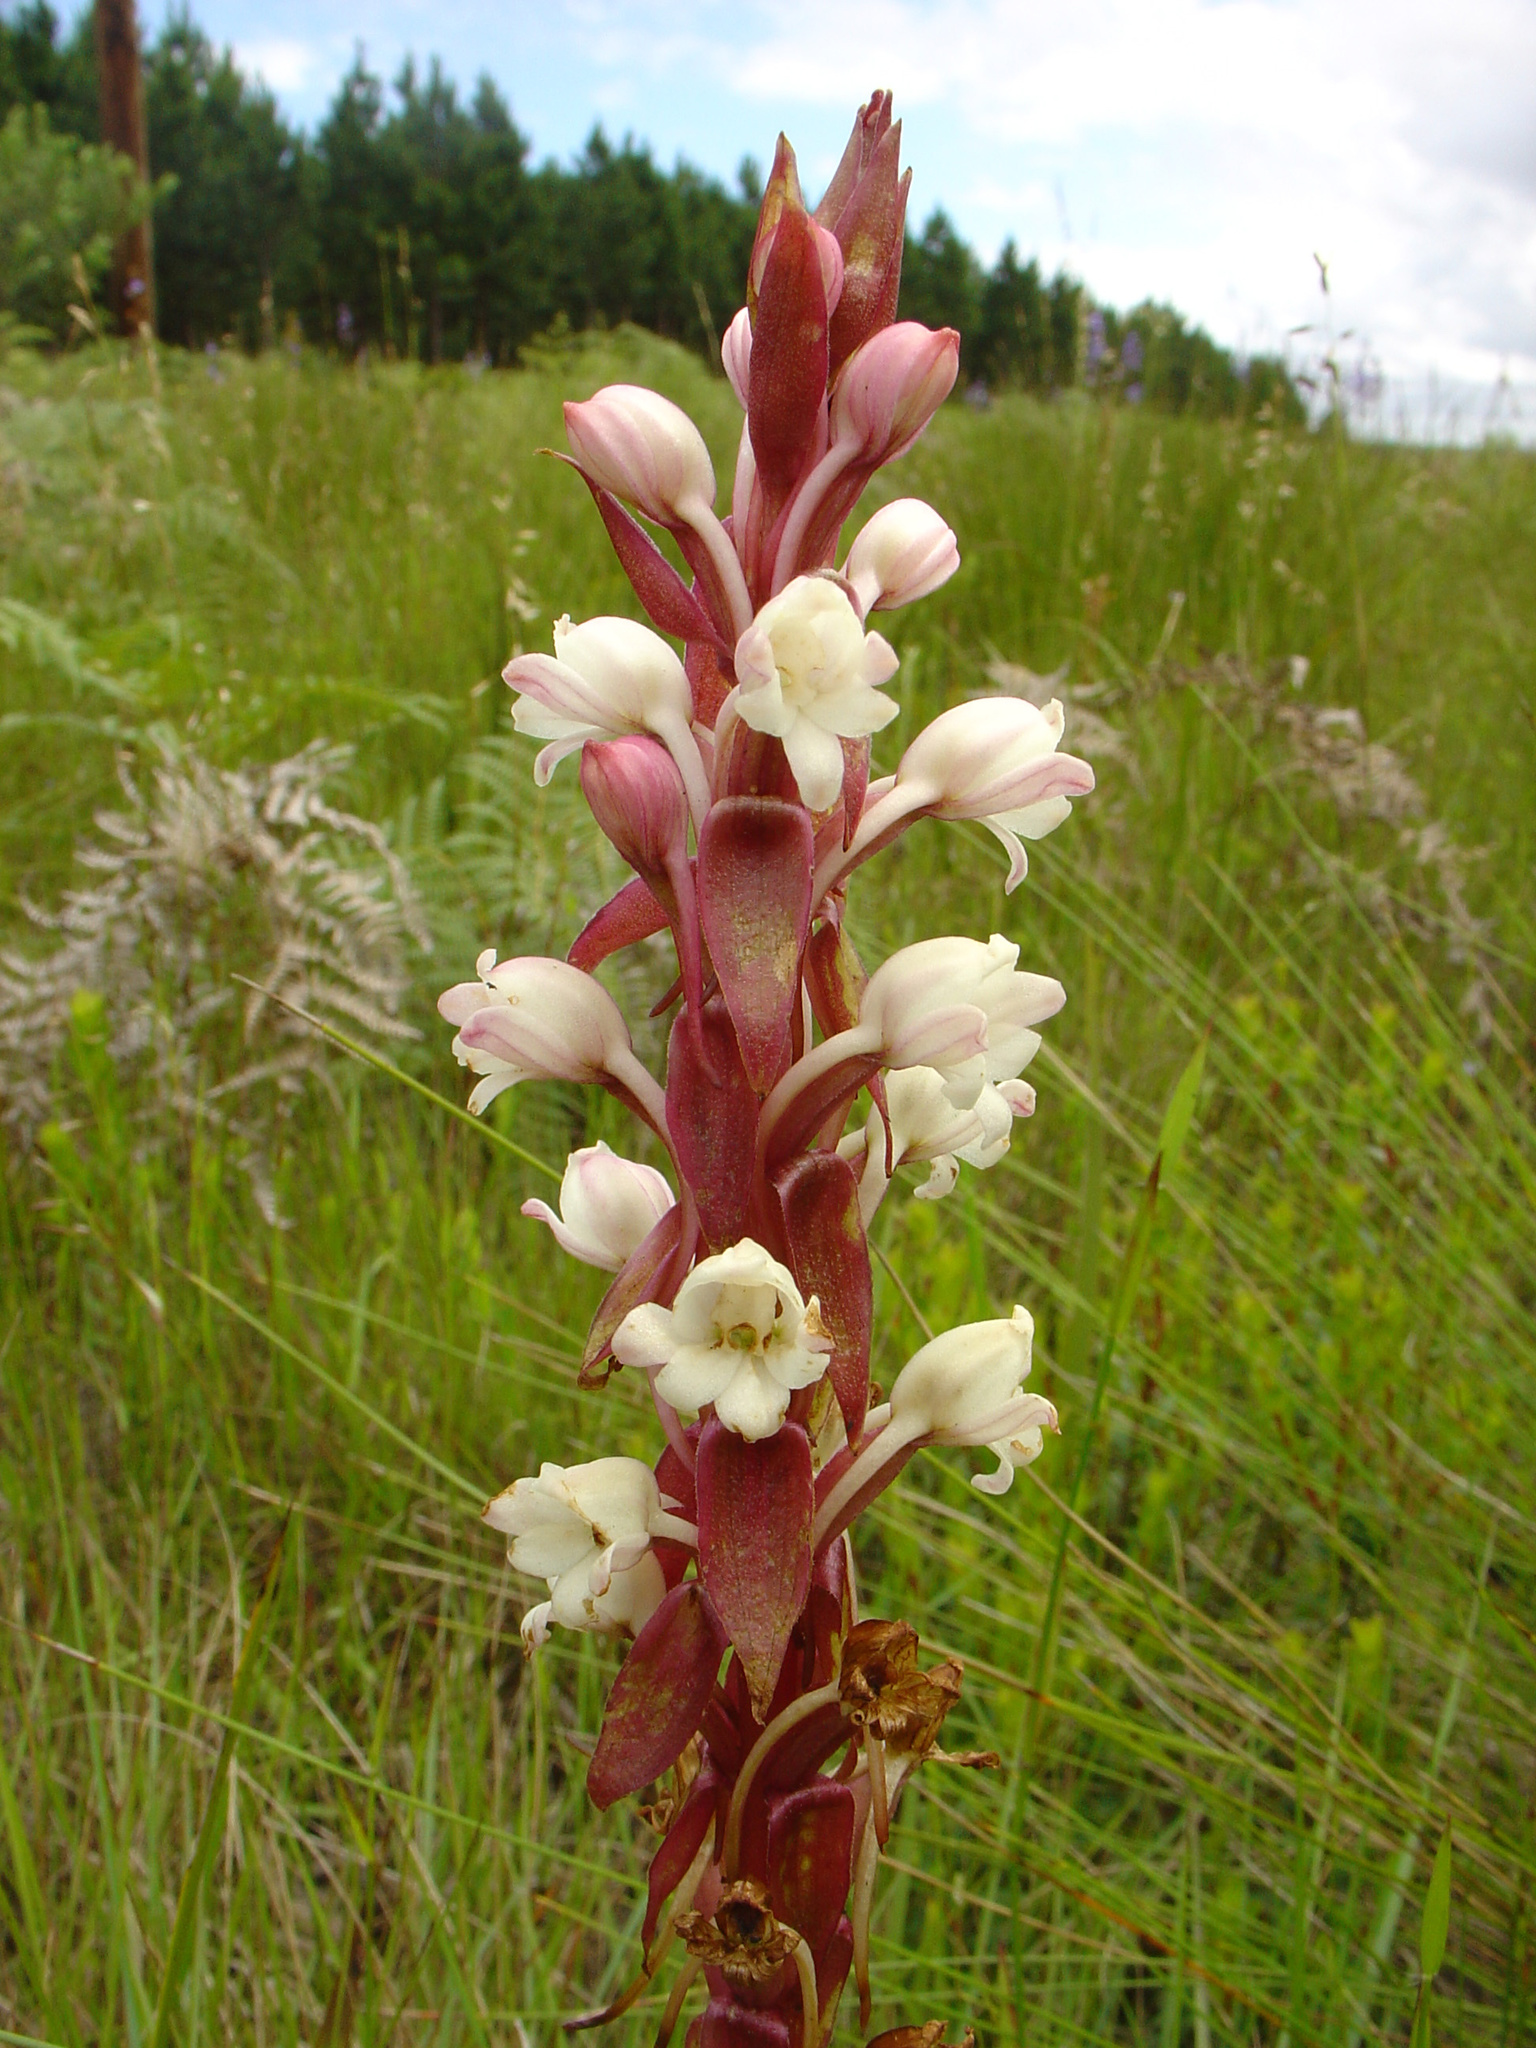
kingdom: Plantae
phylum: Tracheophyta
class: Liliopsida
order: Asparagales
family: Orchidaceae
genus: Satyrium
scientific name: Satyrium acuminatum
